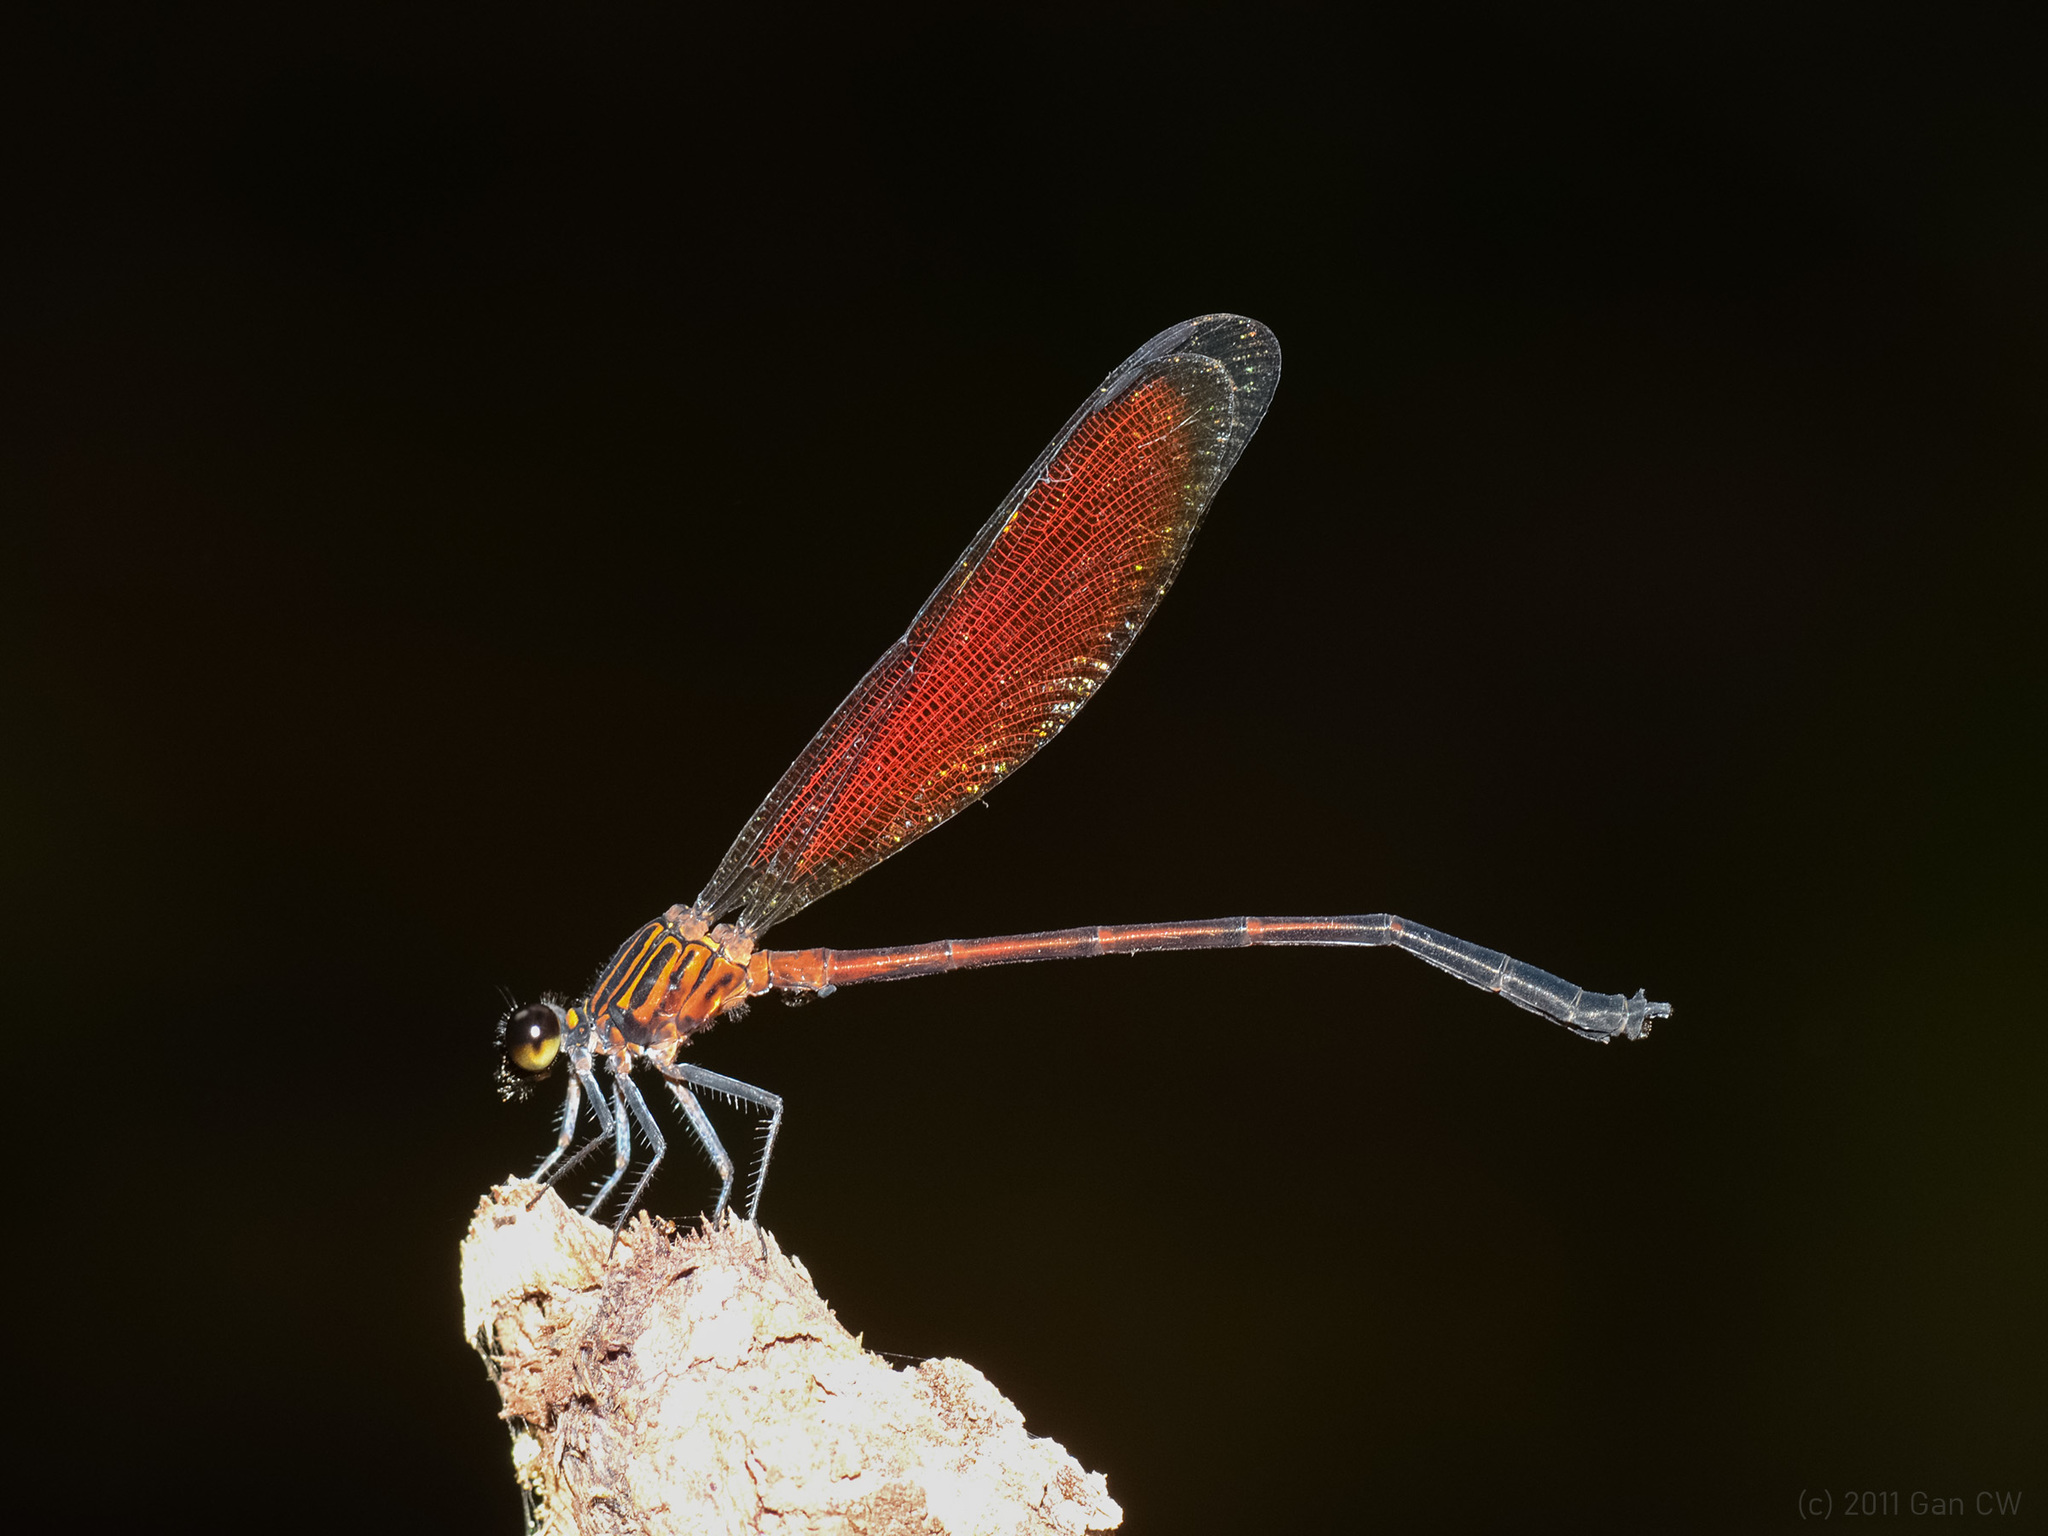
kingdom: Animalia
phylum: Arthropoda
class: Insecta
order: Odonata
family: Euphaeidae
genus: Euphaea
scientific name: Euphaea ochracea
